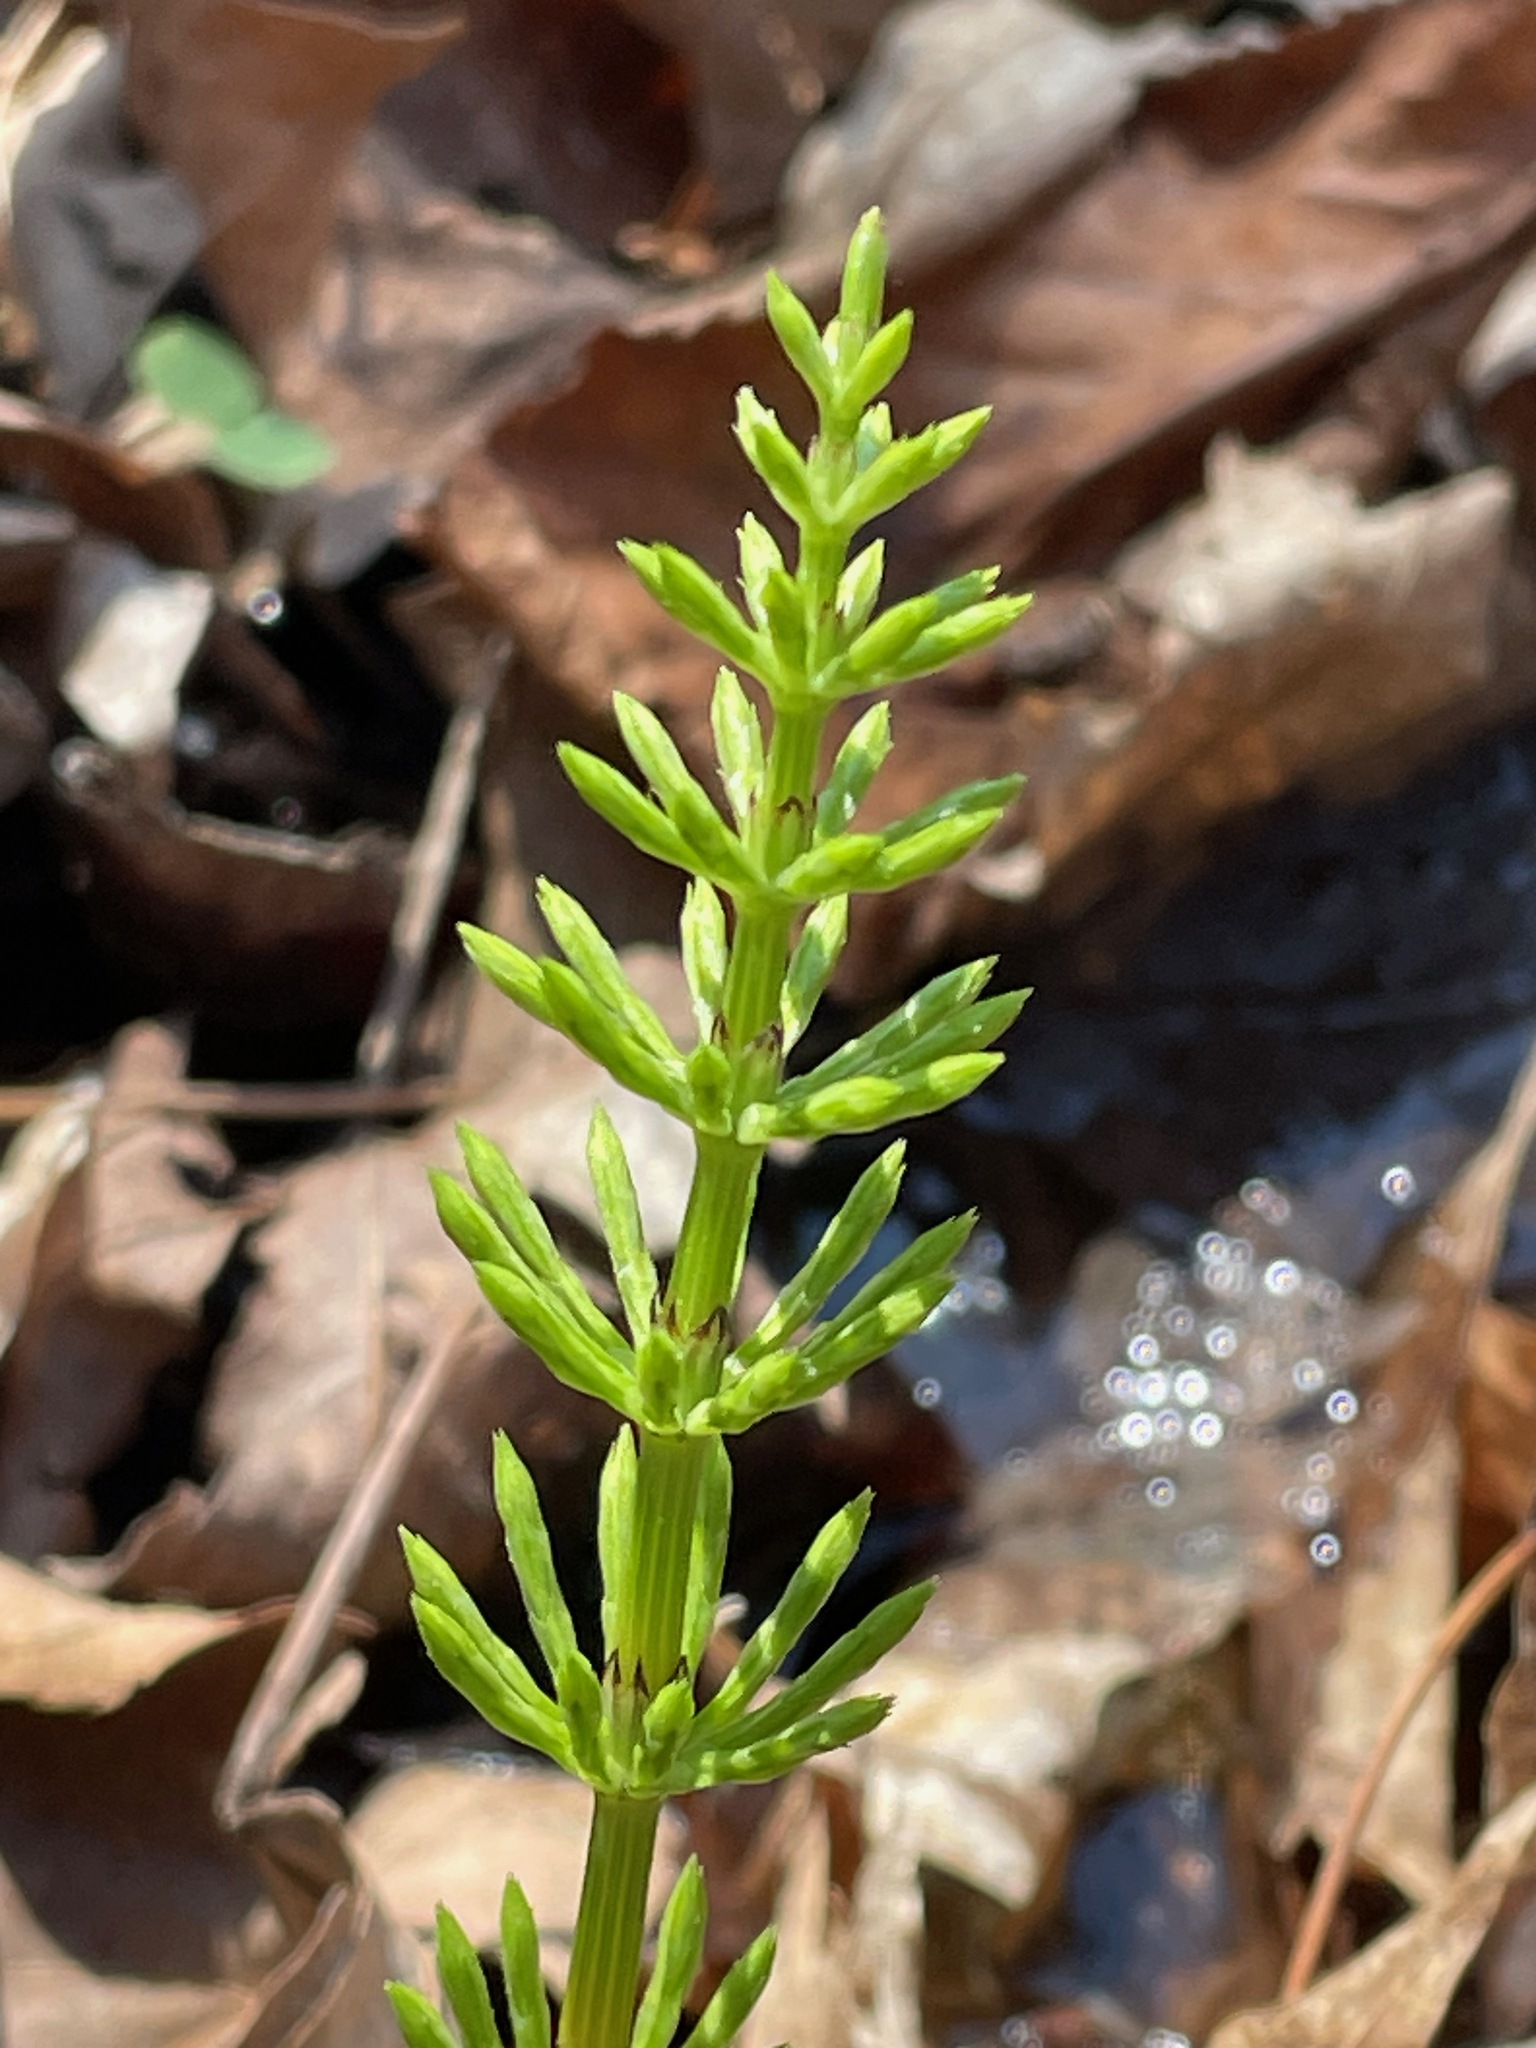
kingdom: Plantae
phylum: Tracheophyta
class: Polypodiopsida
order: Equisetales
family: Equisetaceae
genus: Equisetum
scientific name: Equisetum arvense
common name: Field horsetail
